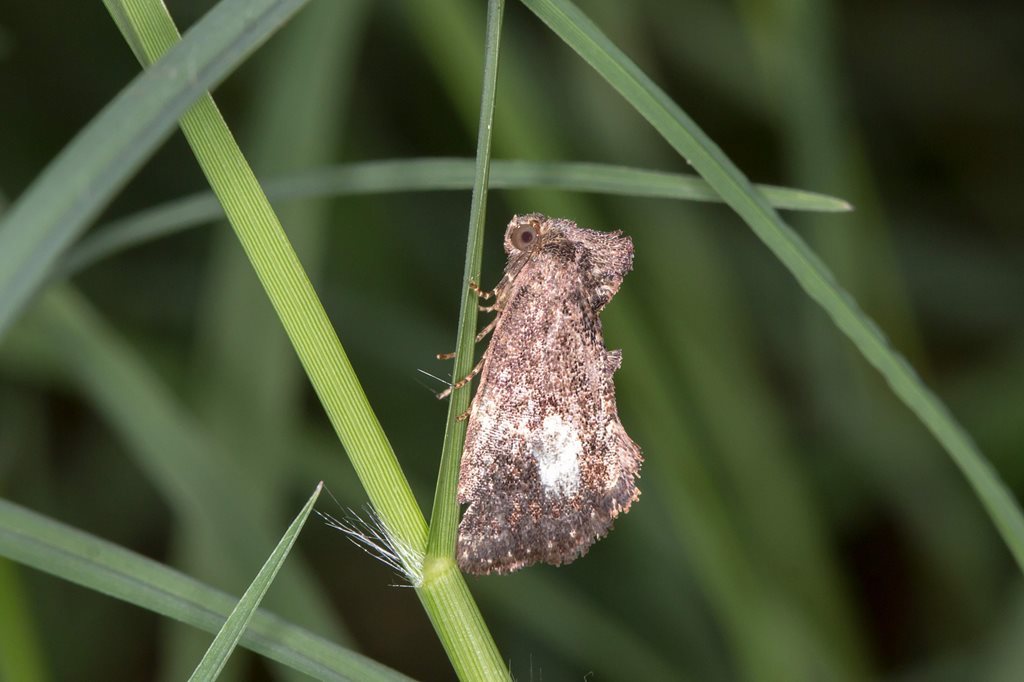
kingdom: Animalia
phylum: Arthropoda
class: Insecta
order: Lepidoptera
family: Noctuidae
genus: Elusa
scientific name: Elusa semipecten
